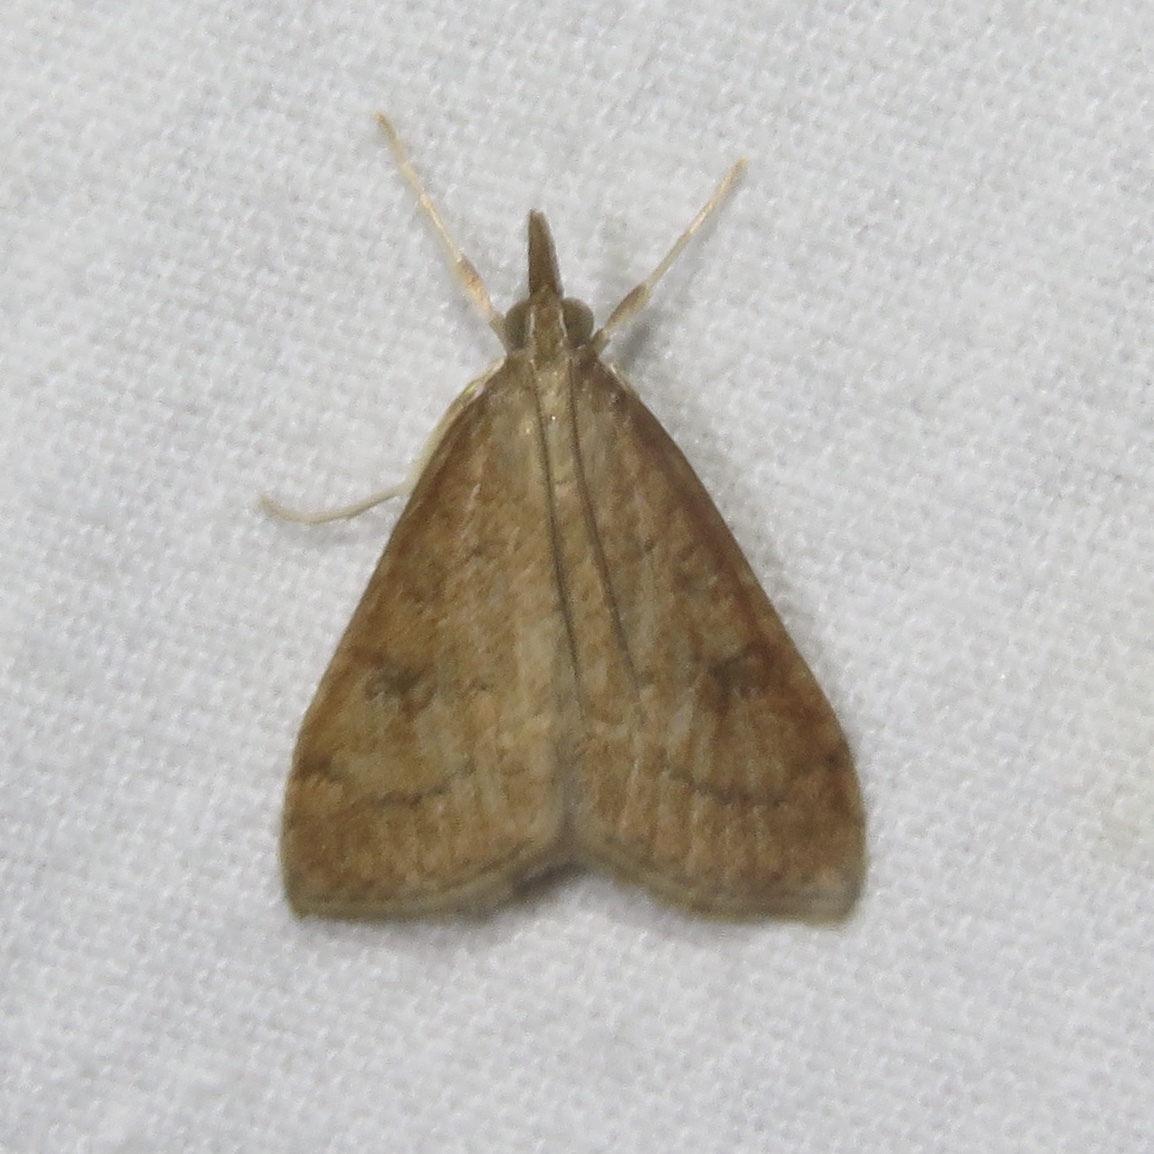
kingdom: Animalia
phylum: Arthropoda
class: Insecta
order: Lepidoptera
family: Crambidae
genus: Udea
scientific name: Udea rubigalis
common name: Celery leaftier moth
